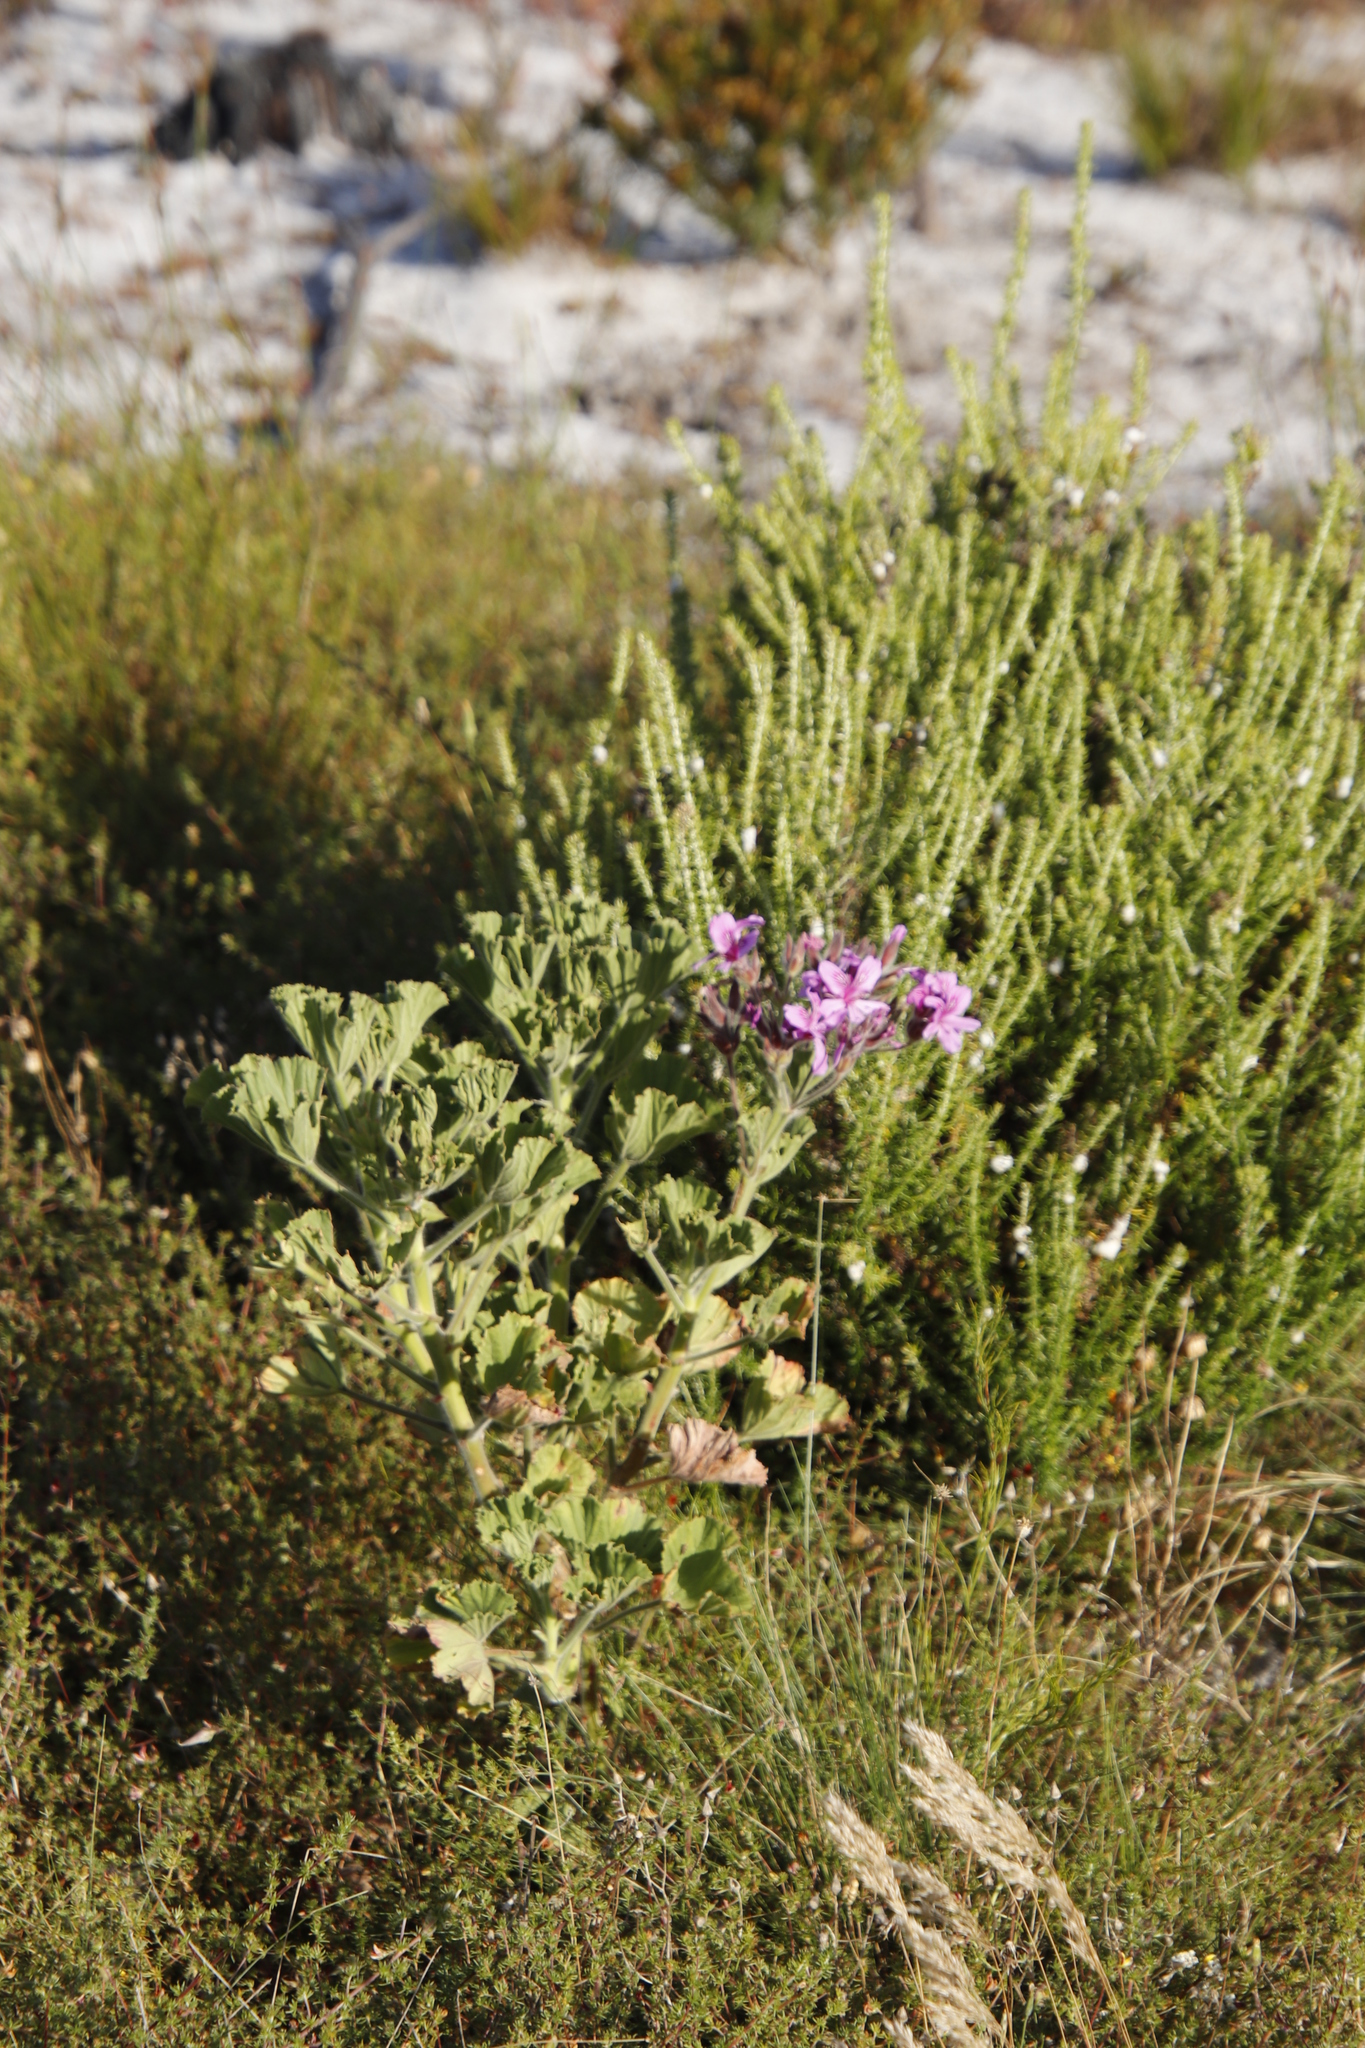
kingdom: Plantae
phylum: Tracheophyta
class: Magnoliopsida
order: Geraniales
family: Geraniaceae
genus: Pelargonium
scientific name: Pelargonium cucullatum
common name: Tree pelargonium
